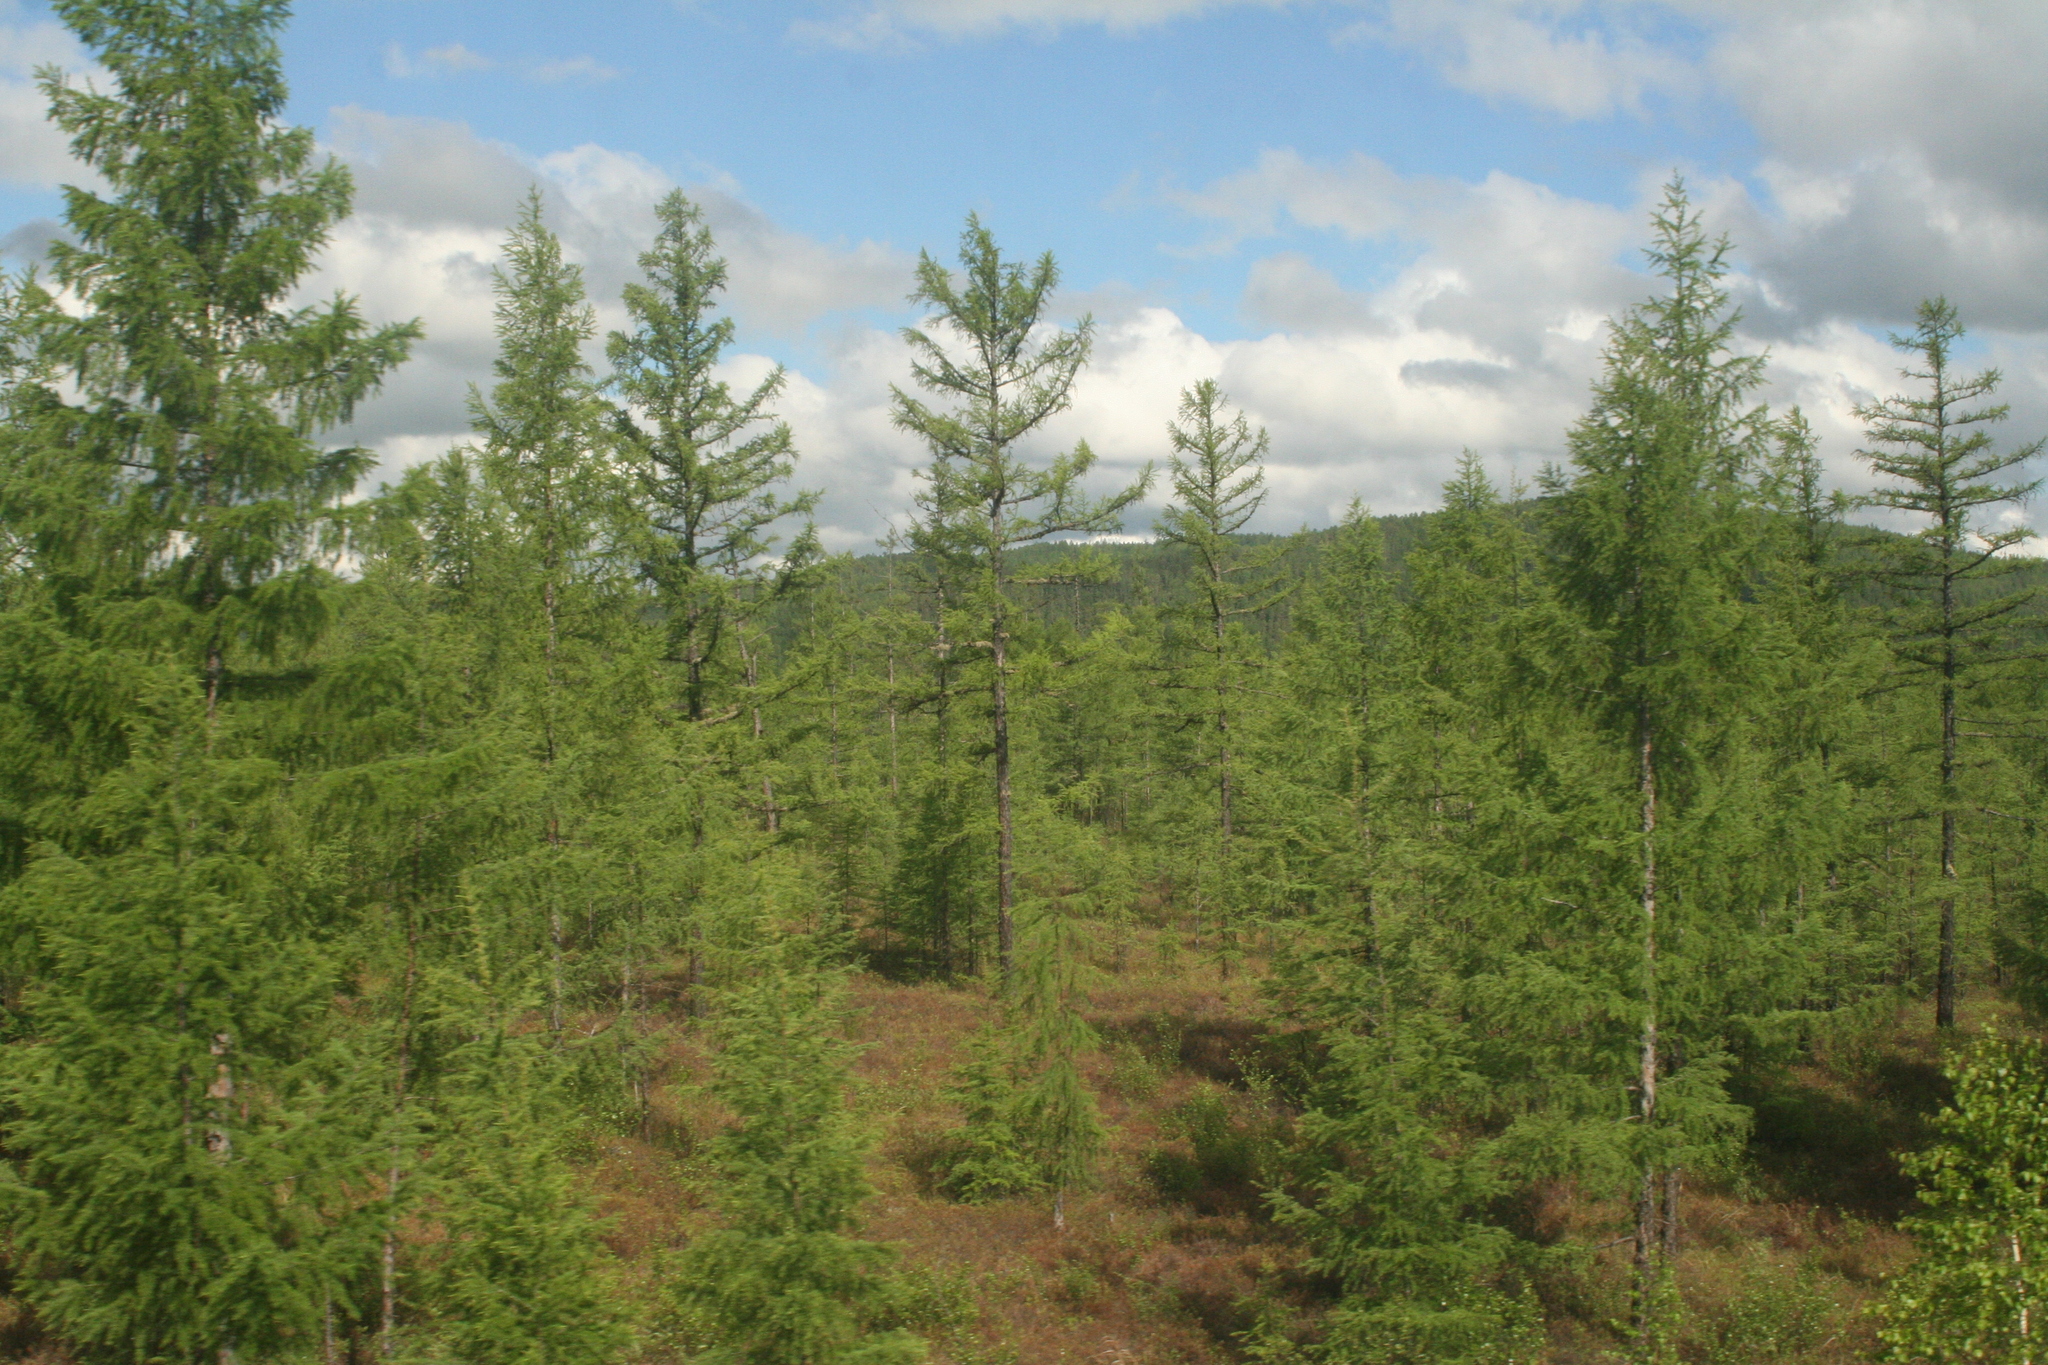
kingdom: Plantae
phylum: Tracheophyta
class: Pinopsida
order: Pinales
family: Pinaceae
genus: Larix
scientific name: Larix gmelinii
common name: Dahurian larch
